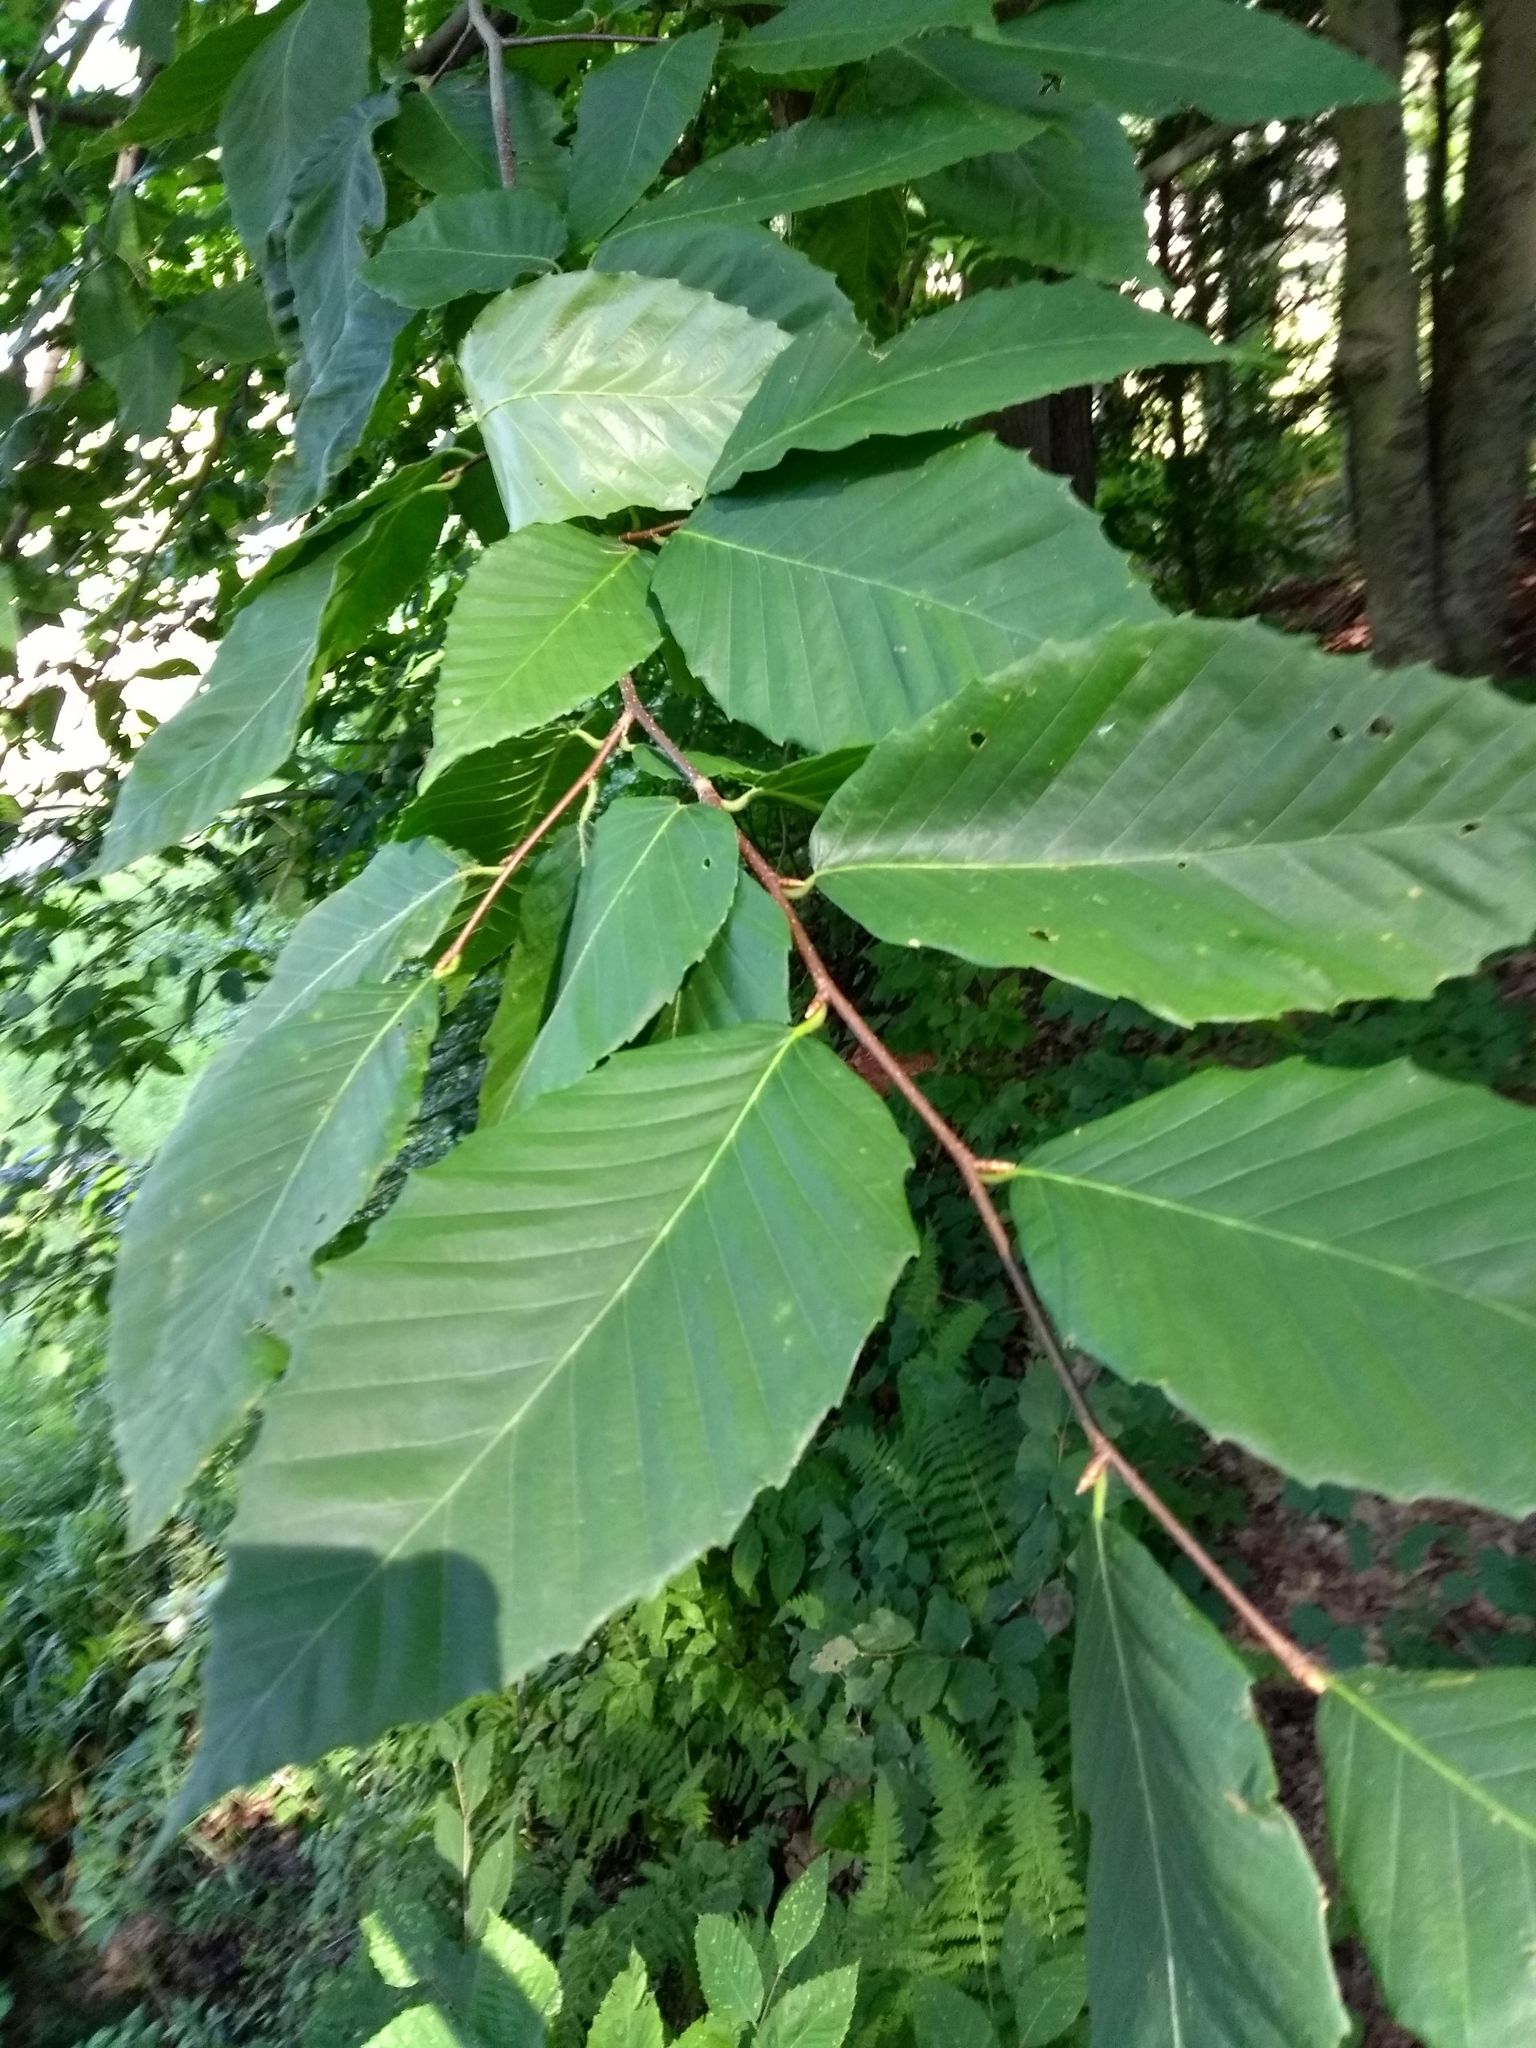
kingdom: Plantae
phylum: Tracheophyta
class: Magnoliopsida
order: Fagales
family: Fagaceae
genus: Fagus
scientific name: Fagus grandifolia
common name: American beech
